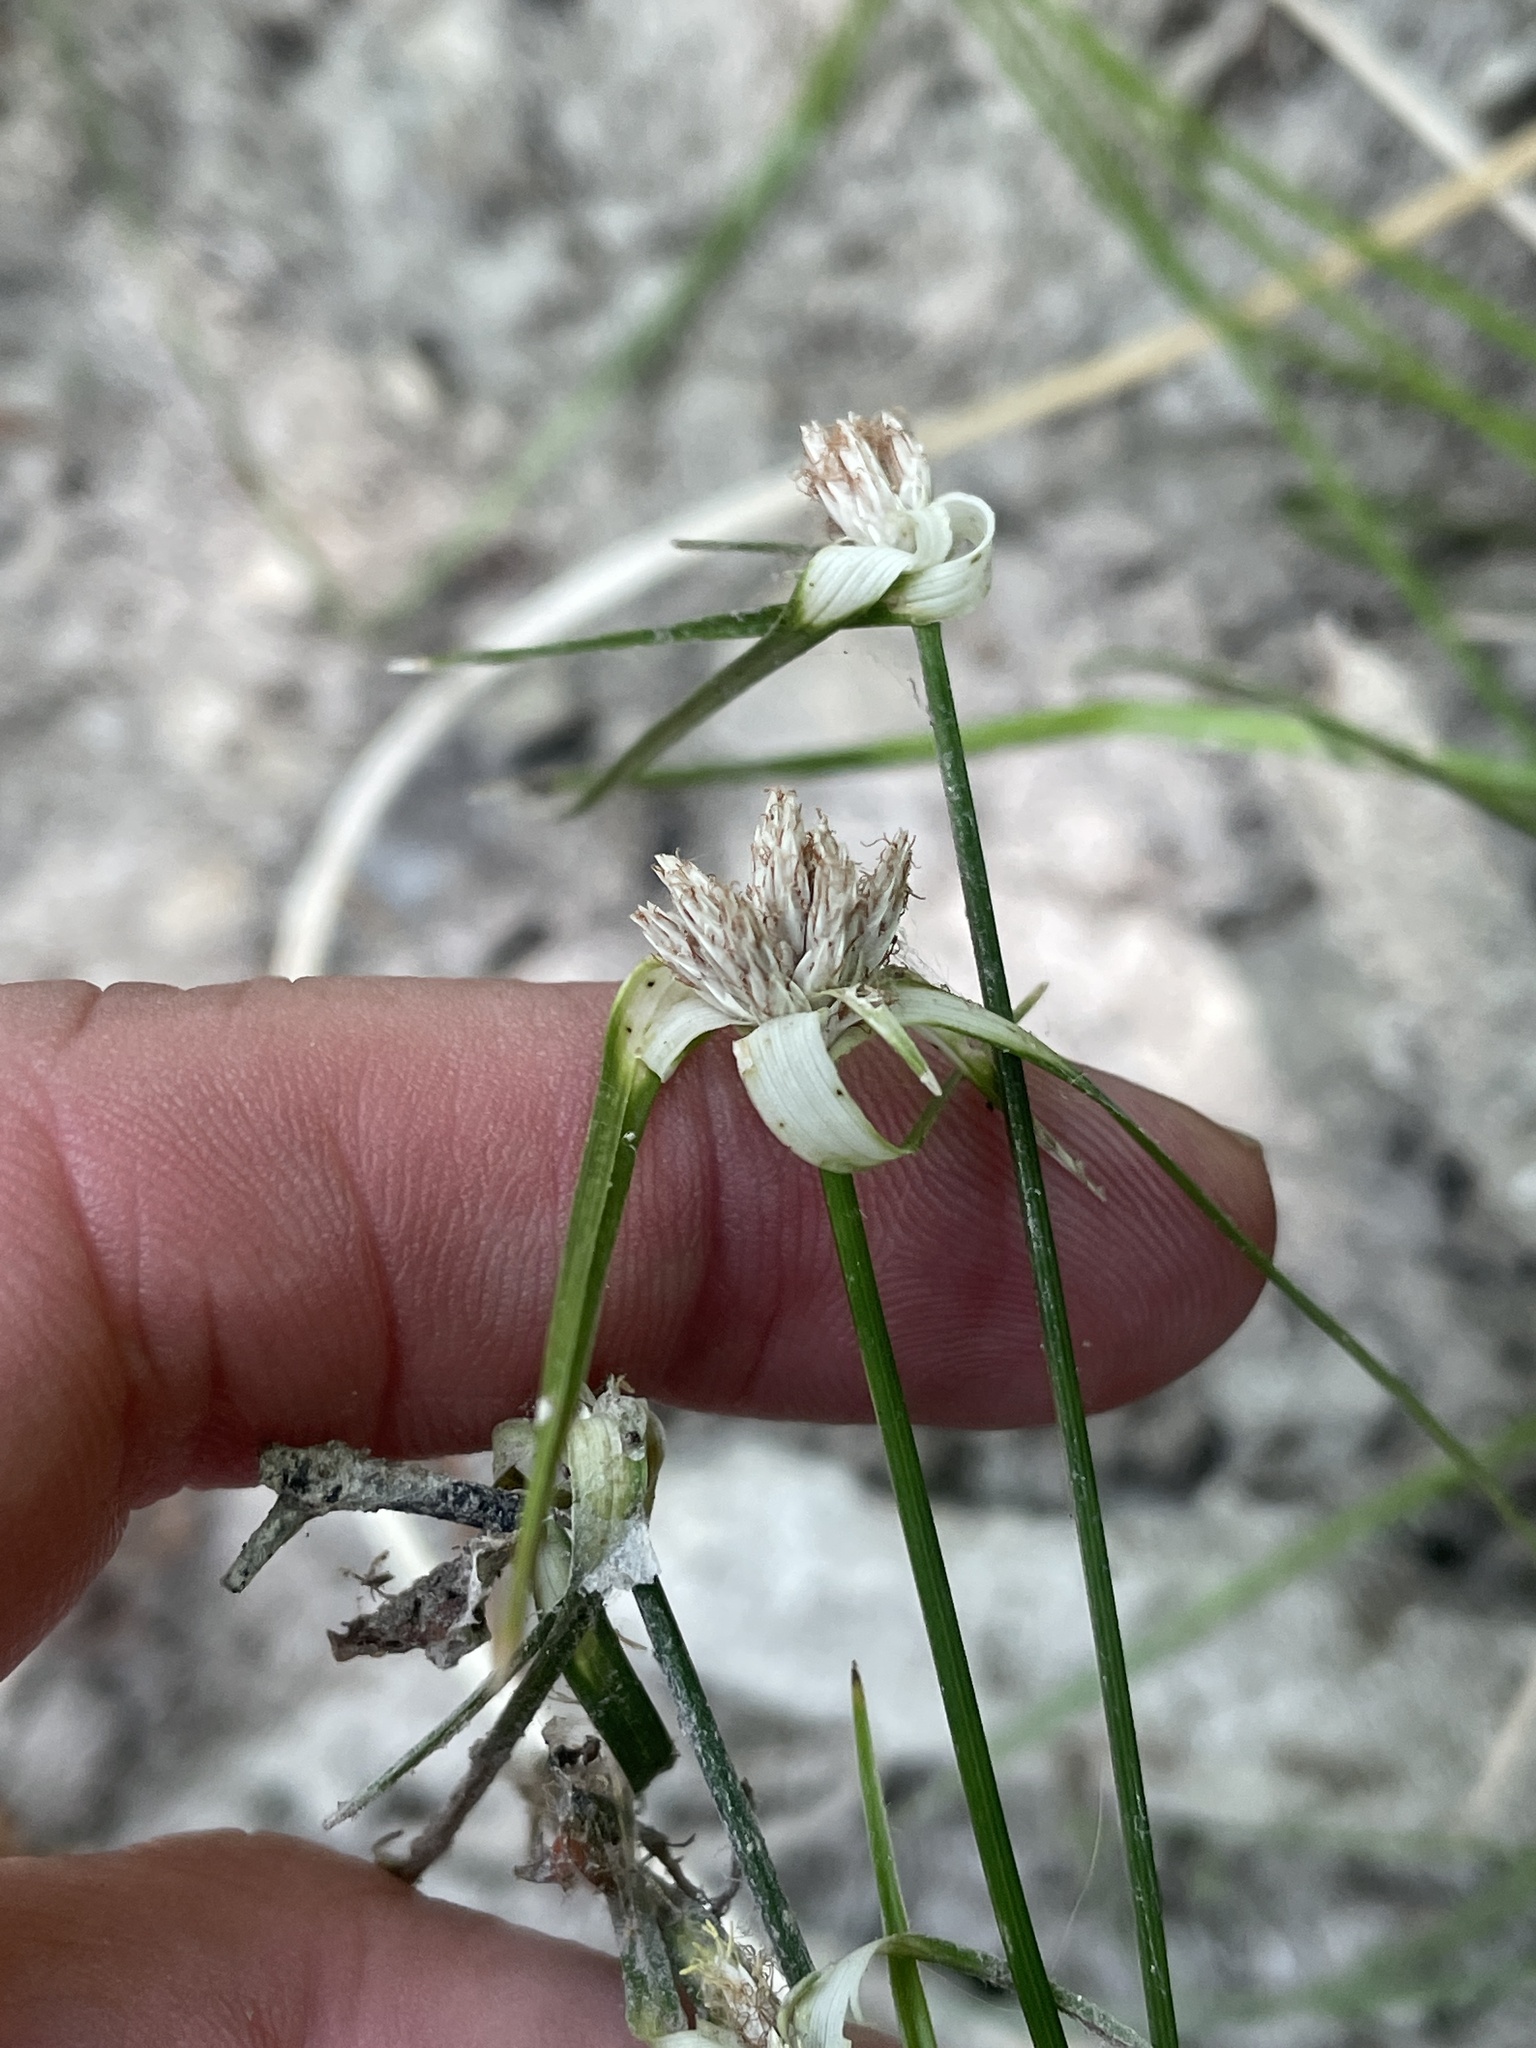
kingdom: Plantae
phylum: Tracheophyta
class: Liliopsida
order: Poales
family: Cyperaceae
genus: Rhynchospora
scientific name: Rhynchospora colorata
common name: Star sedge
